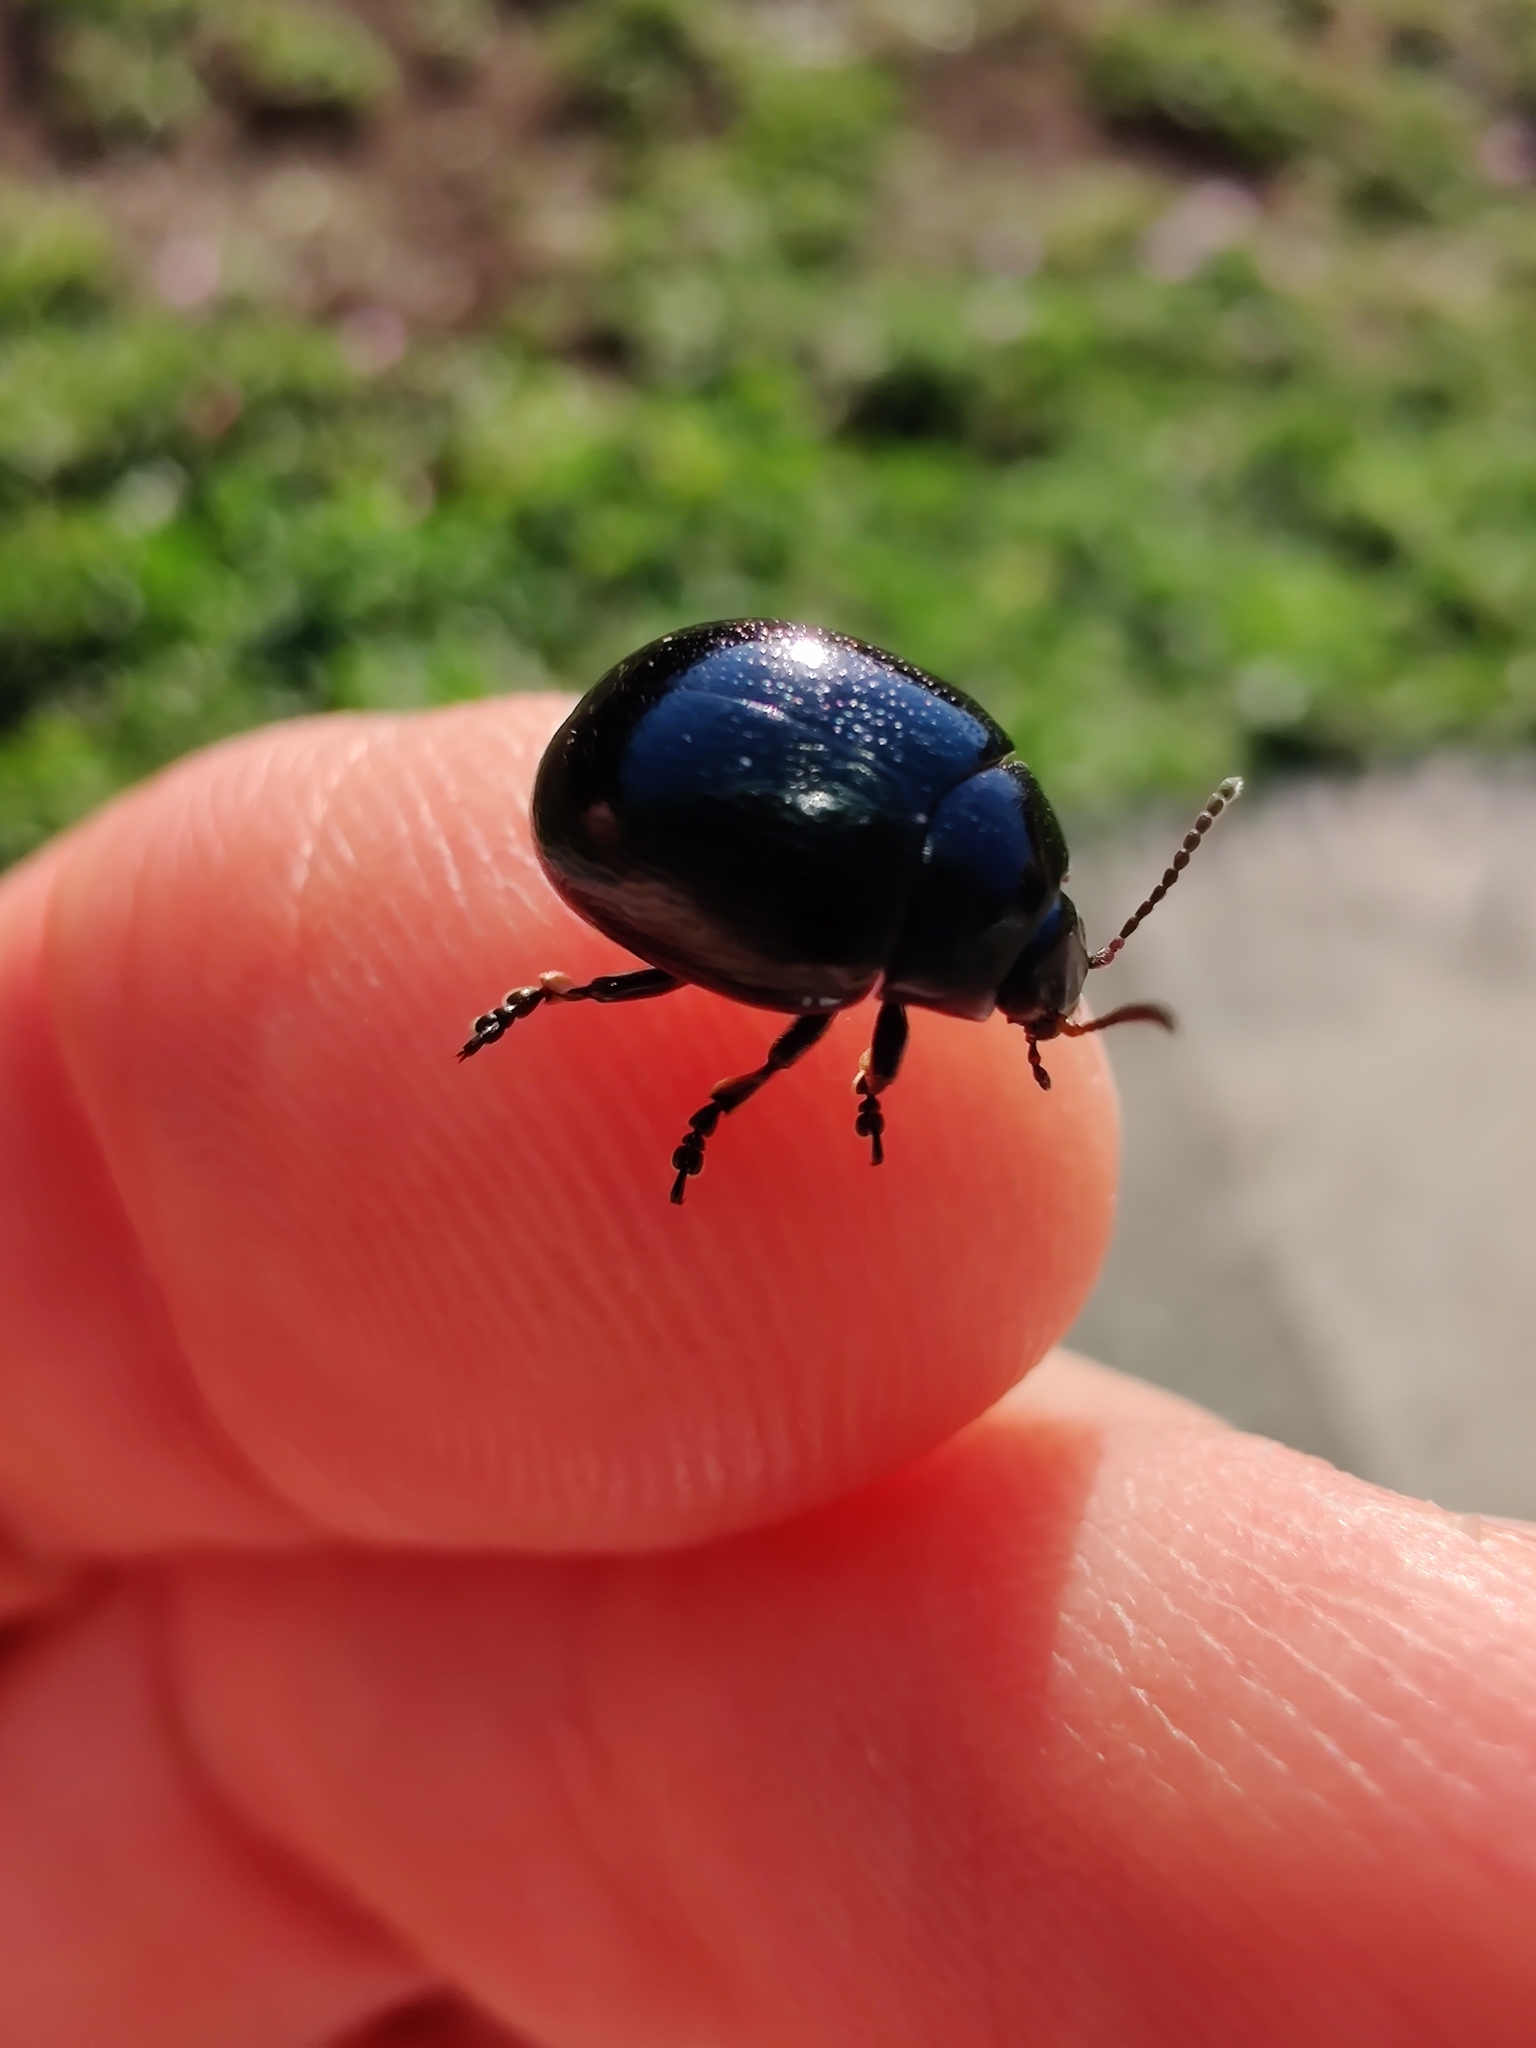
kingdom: Animalia
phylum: Arthropoda
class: Insecta
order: Coleoptera
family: Chrysomelidae
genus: Chrysolina
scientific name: Chrysolina haemoptera
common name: Plantain leaf beetle
